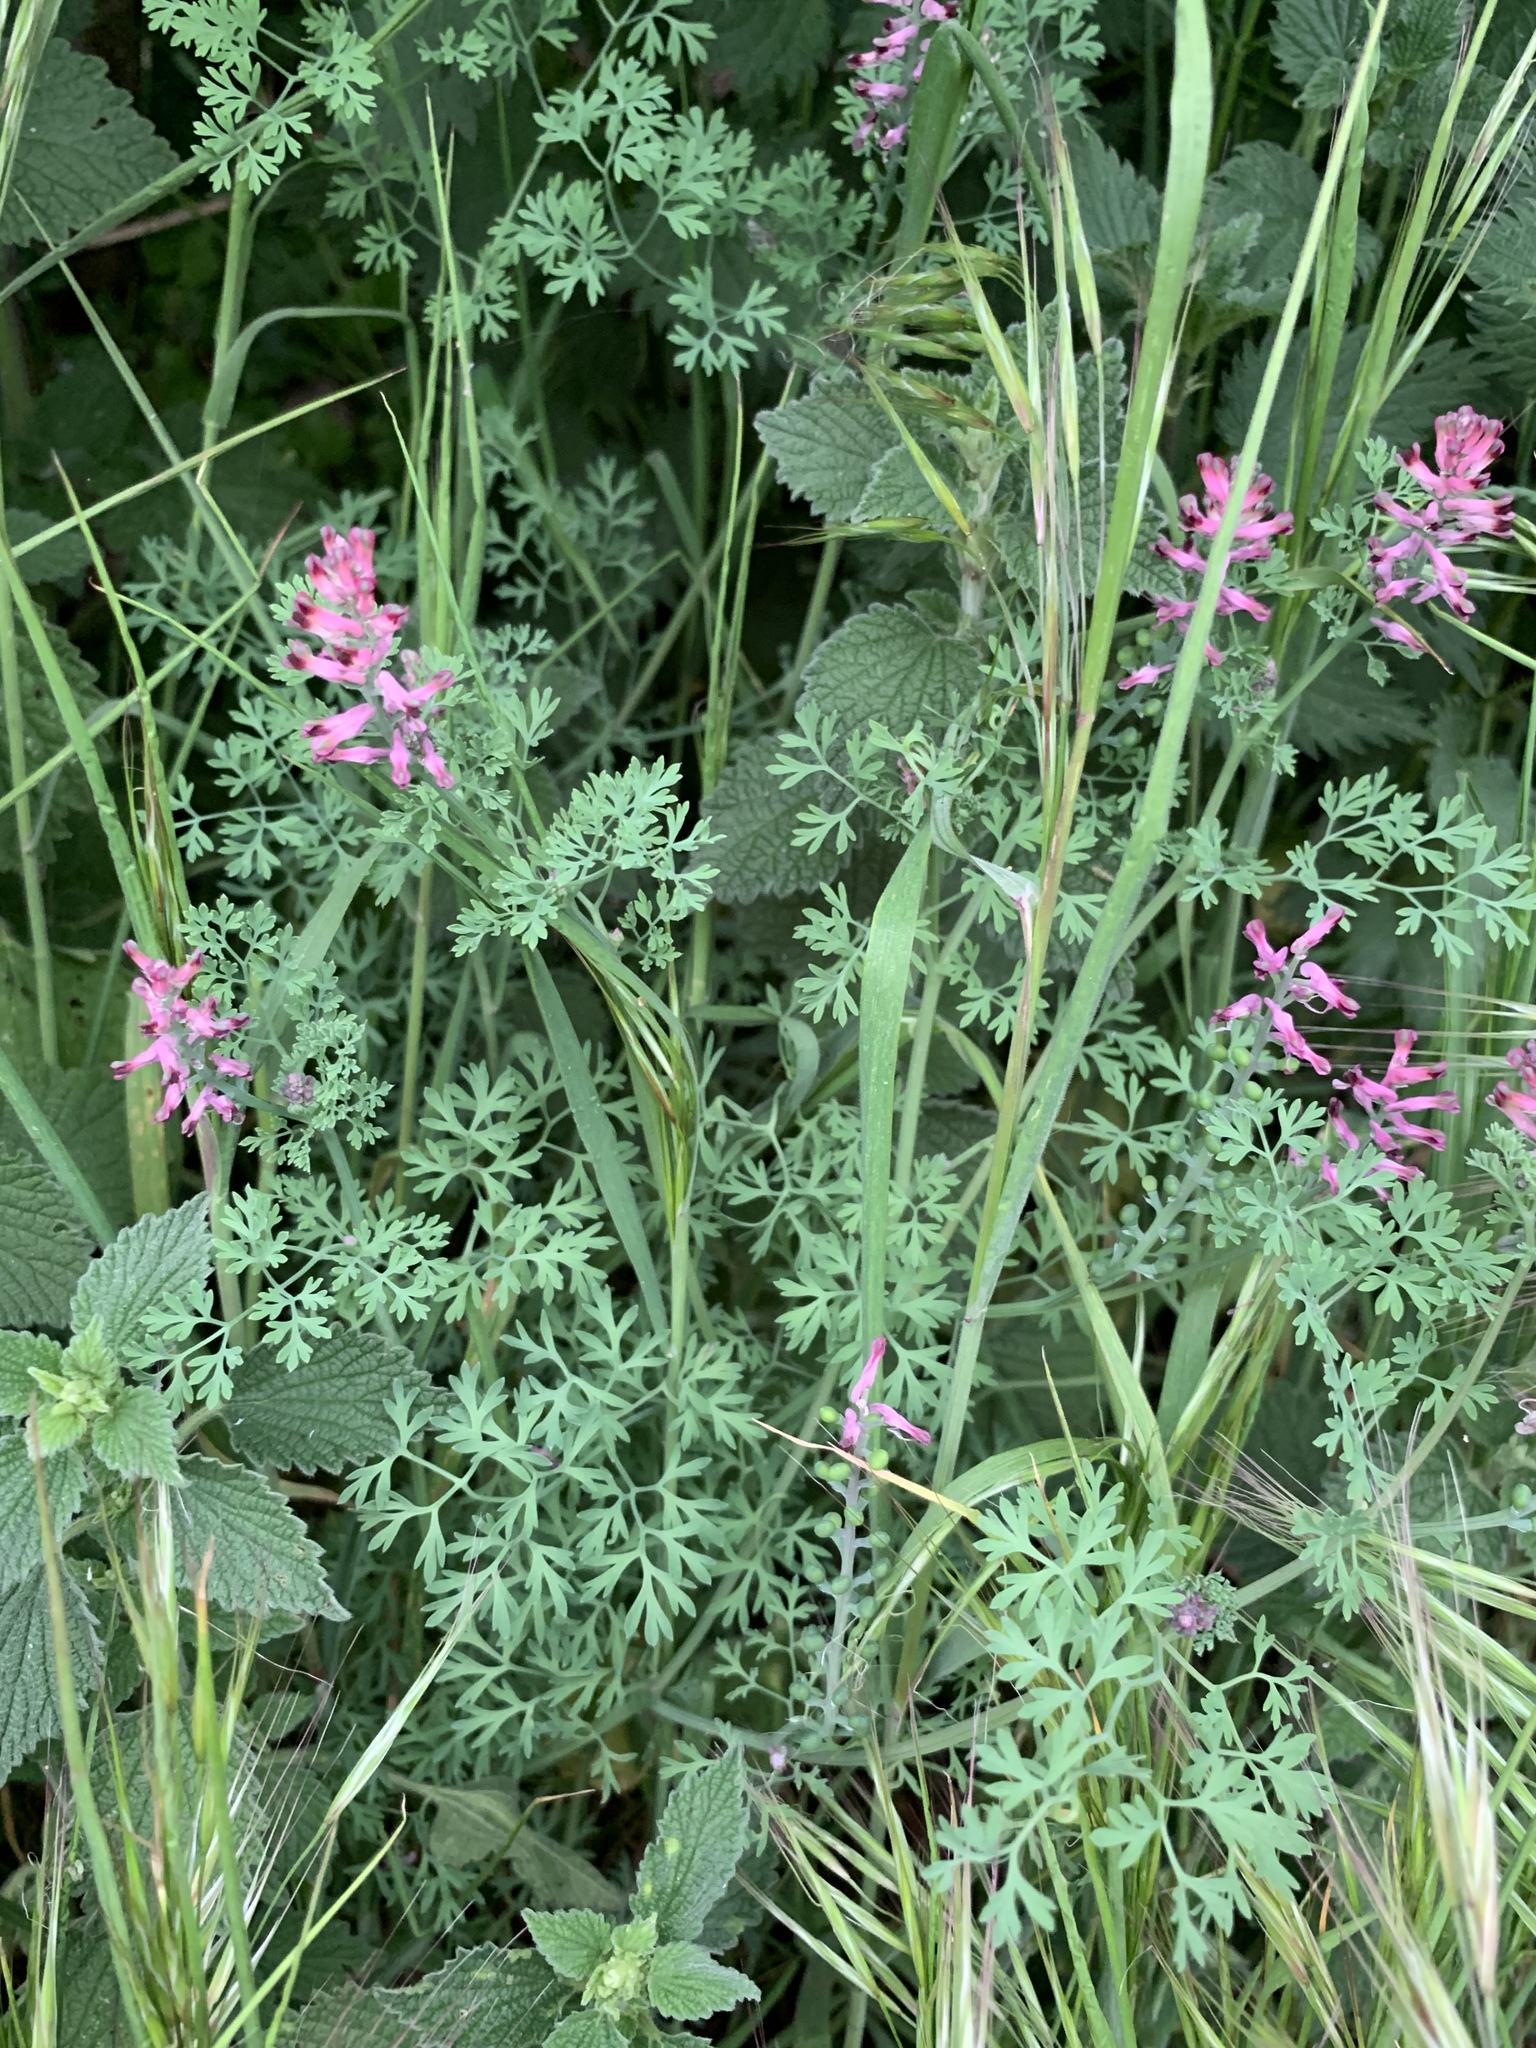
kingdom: Plantae
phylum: Tracheophyta
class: Magnoliopsida
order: Ranunculales
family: Papaveraceae
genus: Fumaria
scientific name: Fumaria officinalis
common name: Common fumitory
